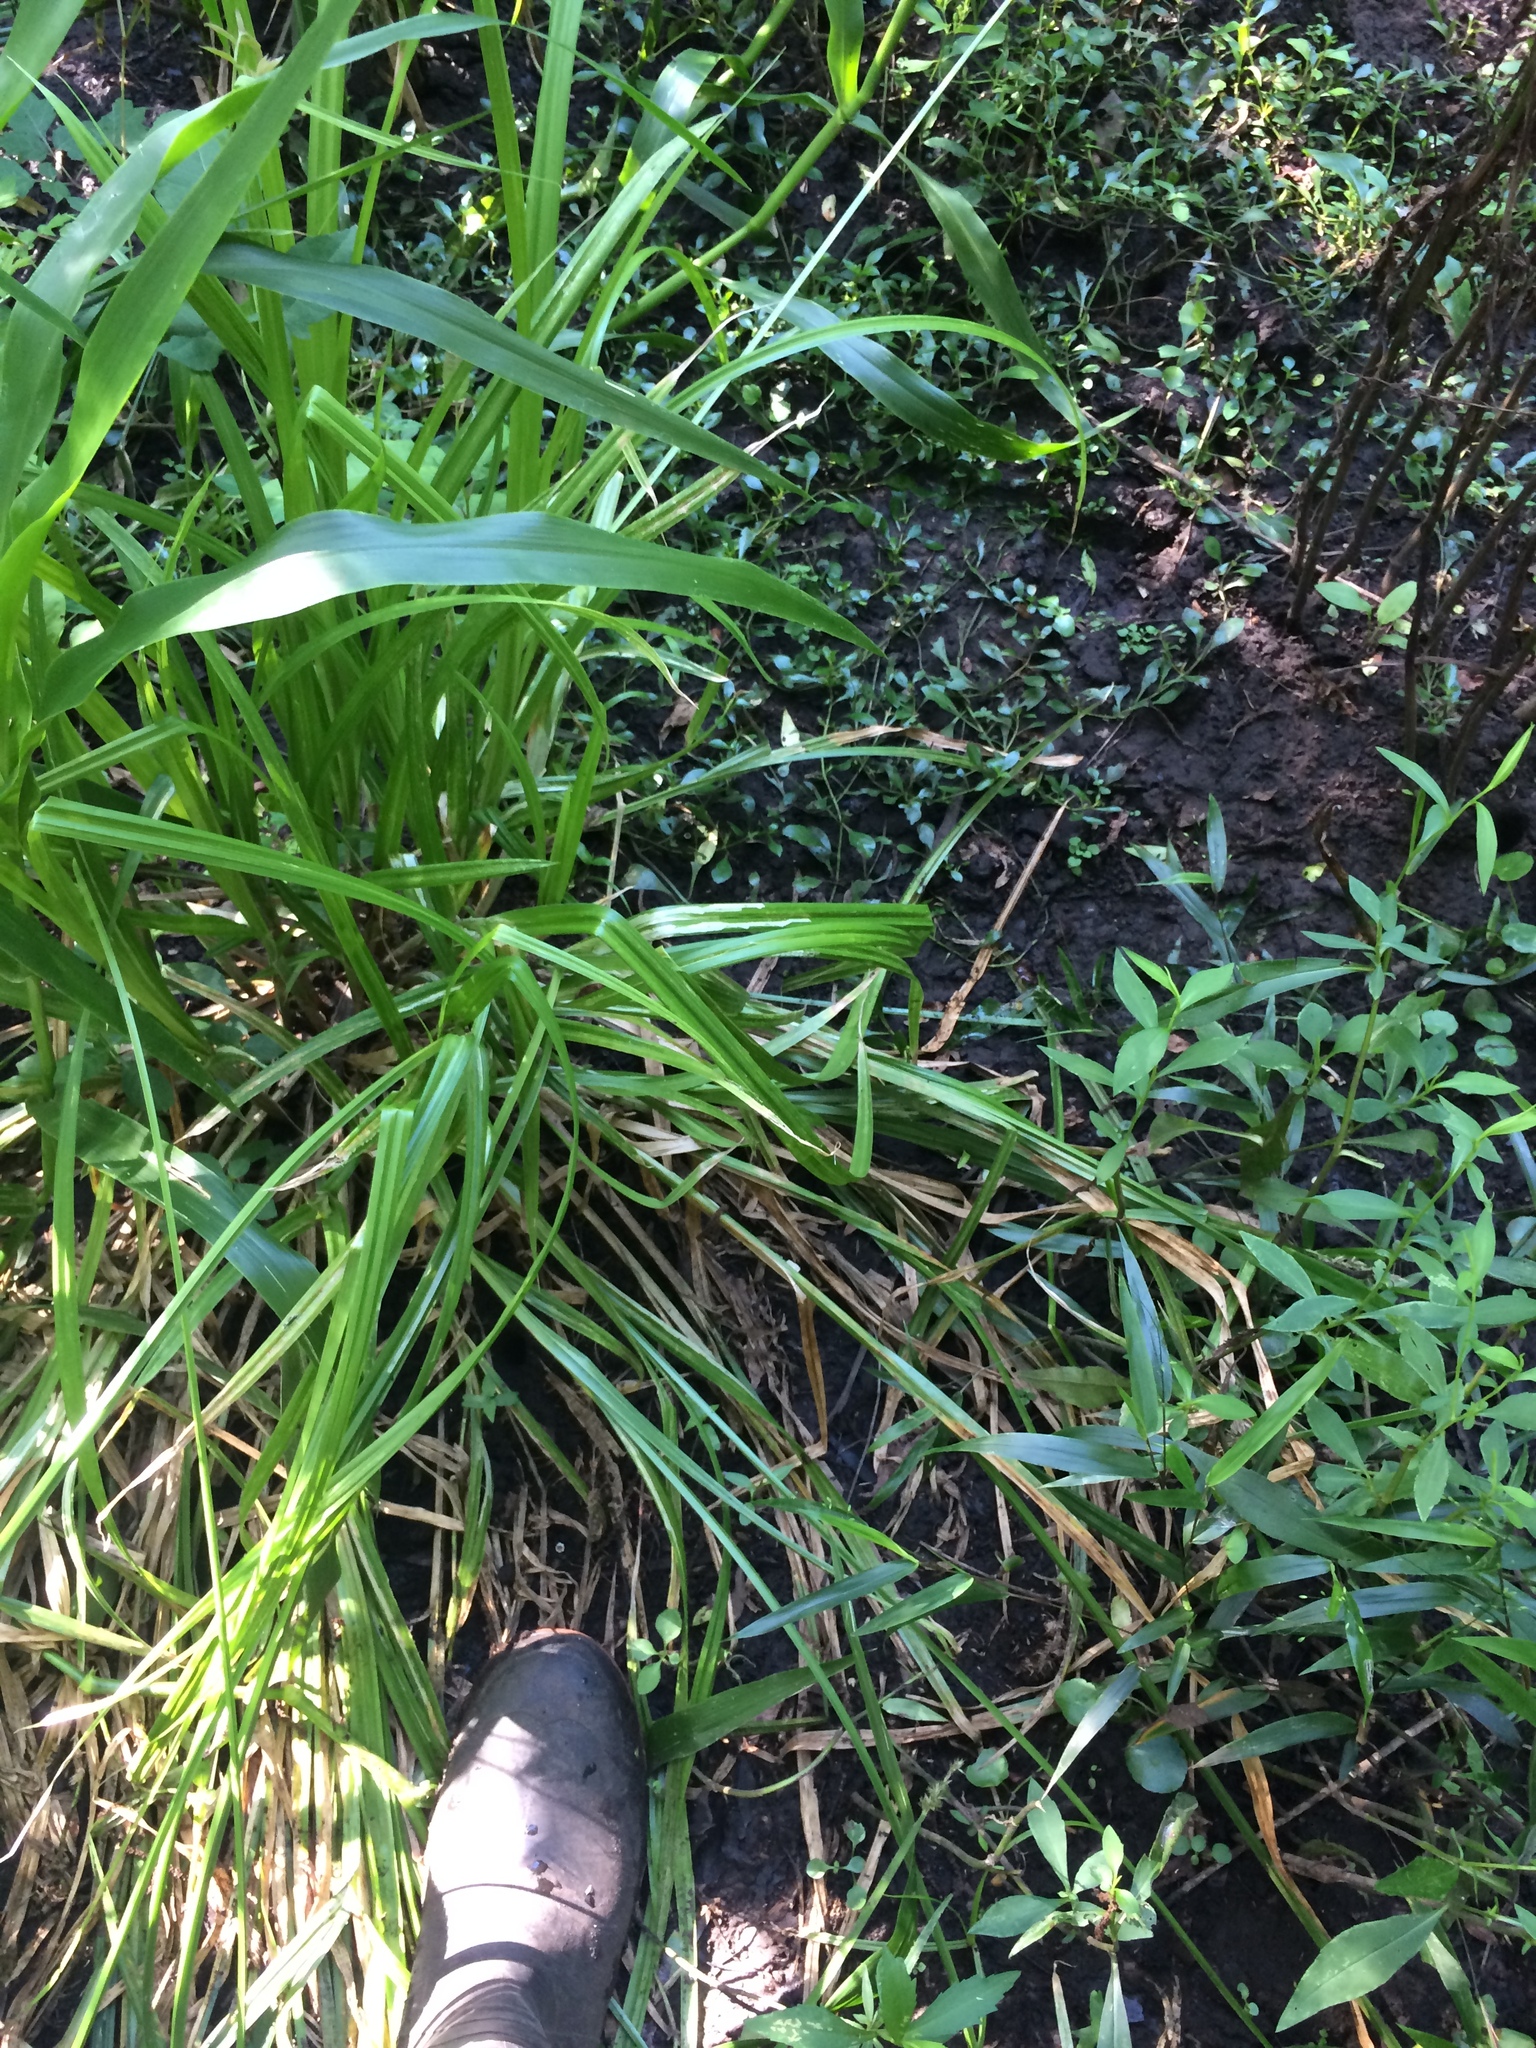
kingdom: Plantae
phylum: Tracheophyta
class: Liliopsida
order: Poales
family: Cyperaceae
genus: Carex
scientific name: Carex stipata
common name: Awl-fruited sedge
